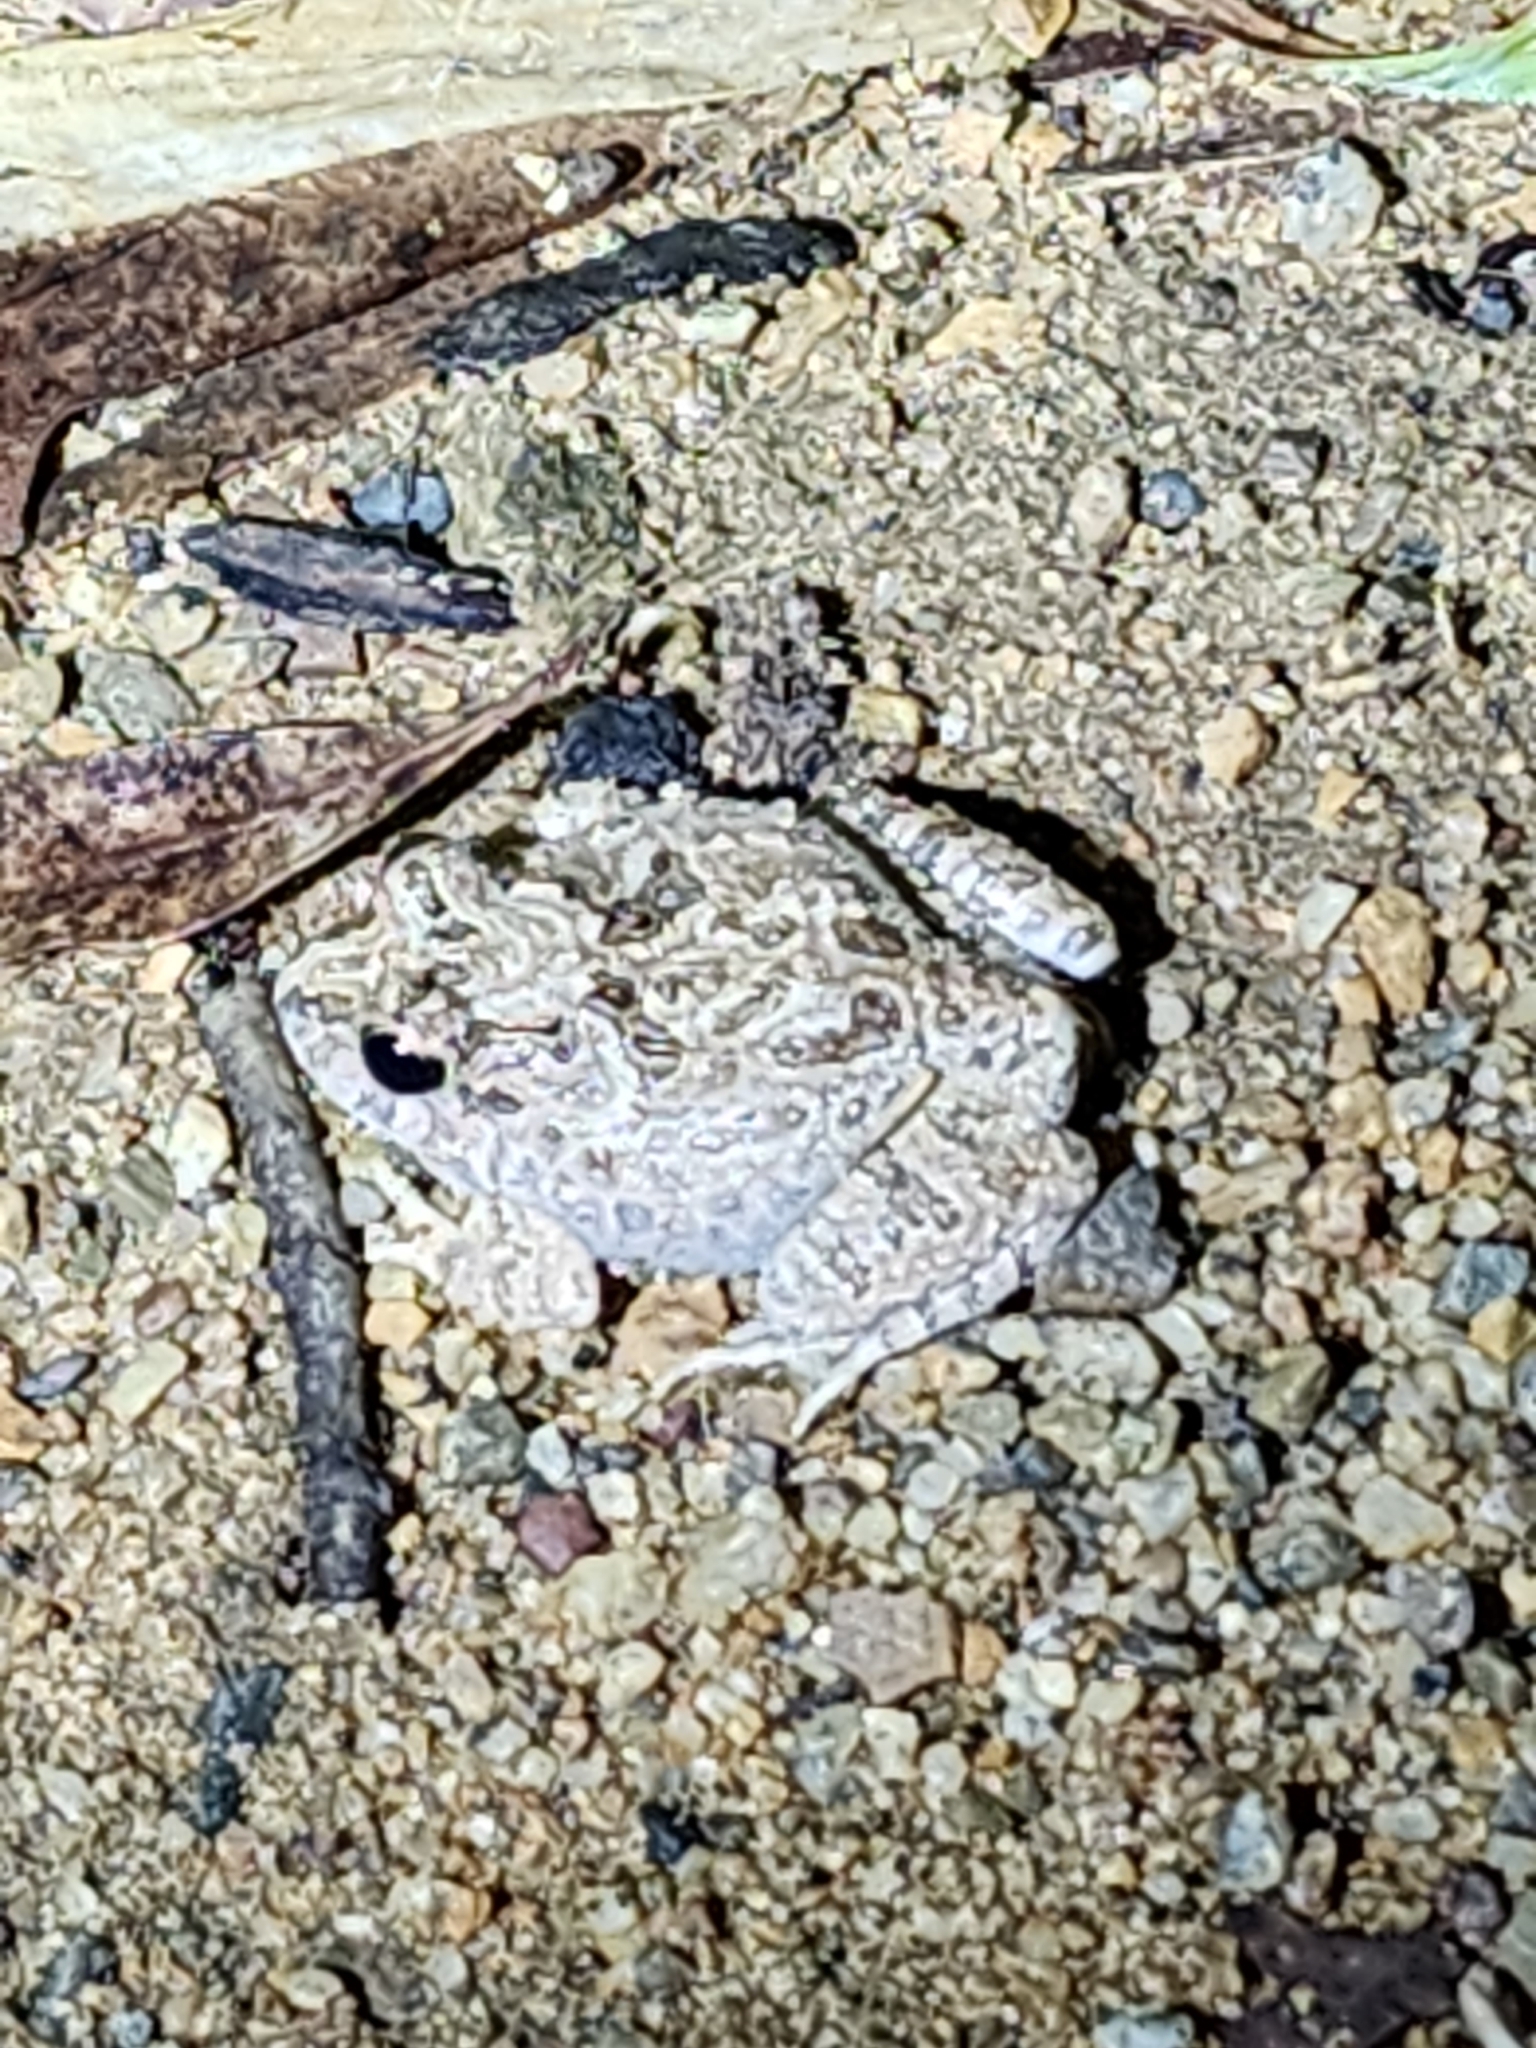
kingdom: Animalia
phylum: Chordata
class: Amphibia
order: Anura
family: Limnodynastidae
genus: Platyplectrum
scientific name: Platyplectrum ornatum
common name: Ornate burrowing frog
